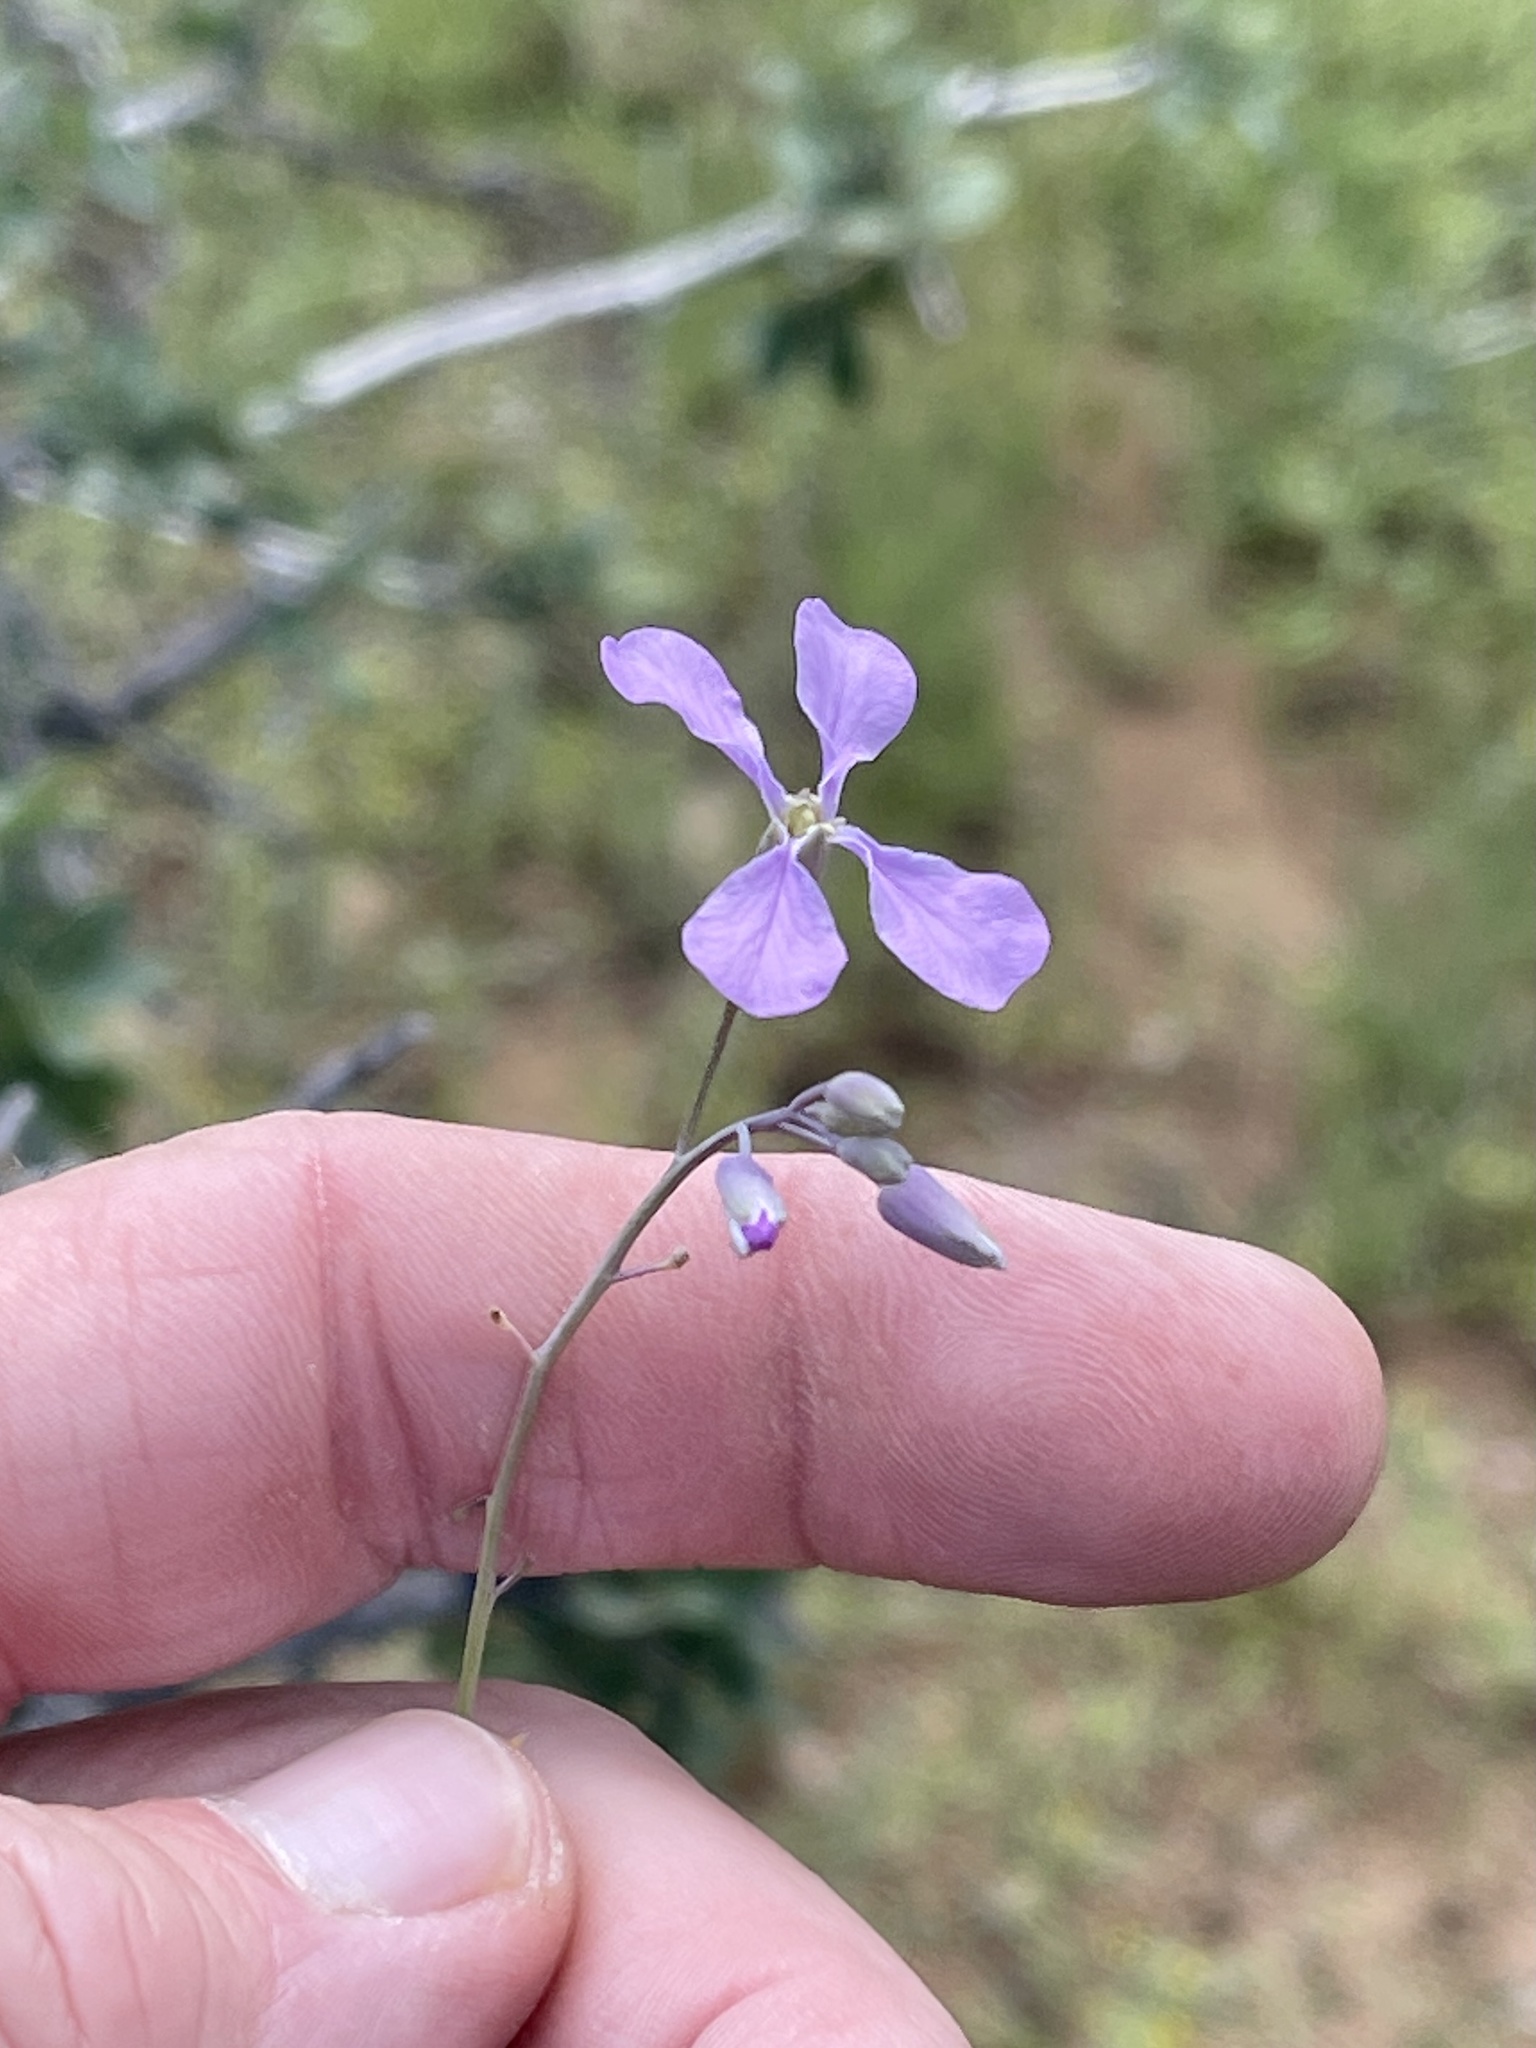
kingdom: Plantae
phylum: Tracheophyta
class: Magnoliopsida
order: Brassicales
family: Brassicaceae
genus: Hesperidanthus
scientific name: Hesperidanthus linearifolius
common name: Slim-leaf plains mustard
